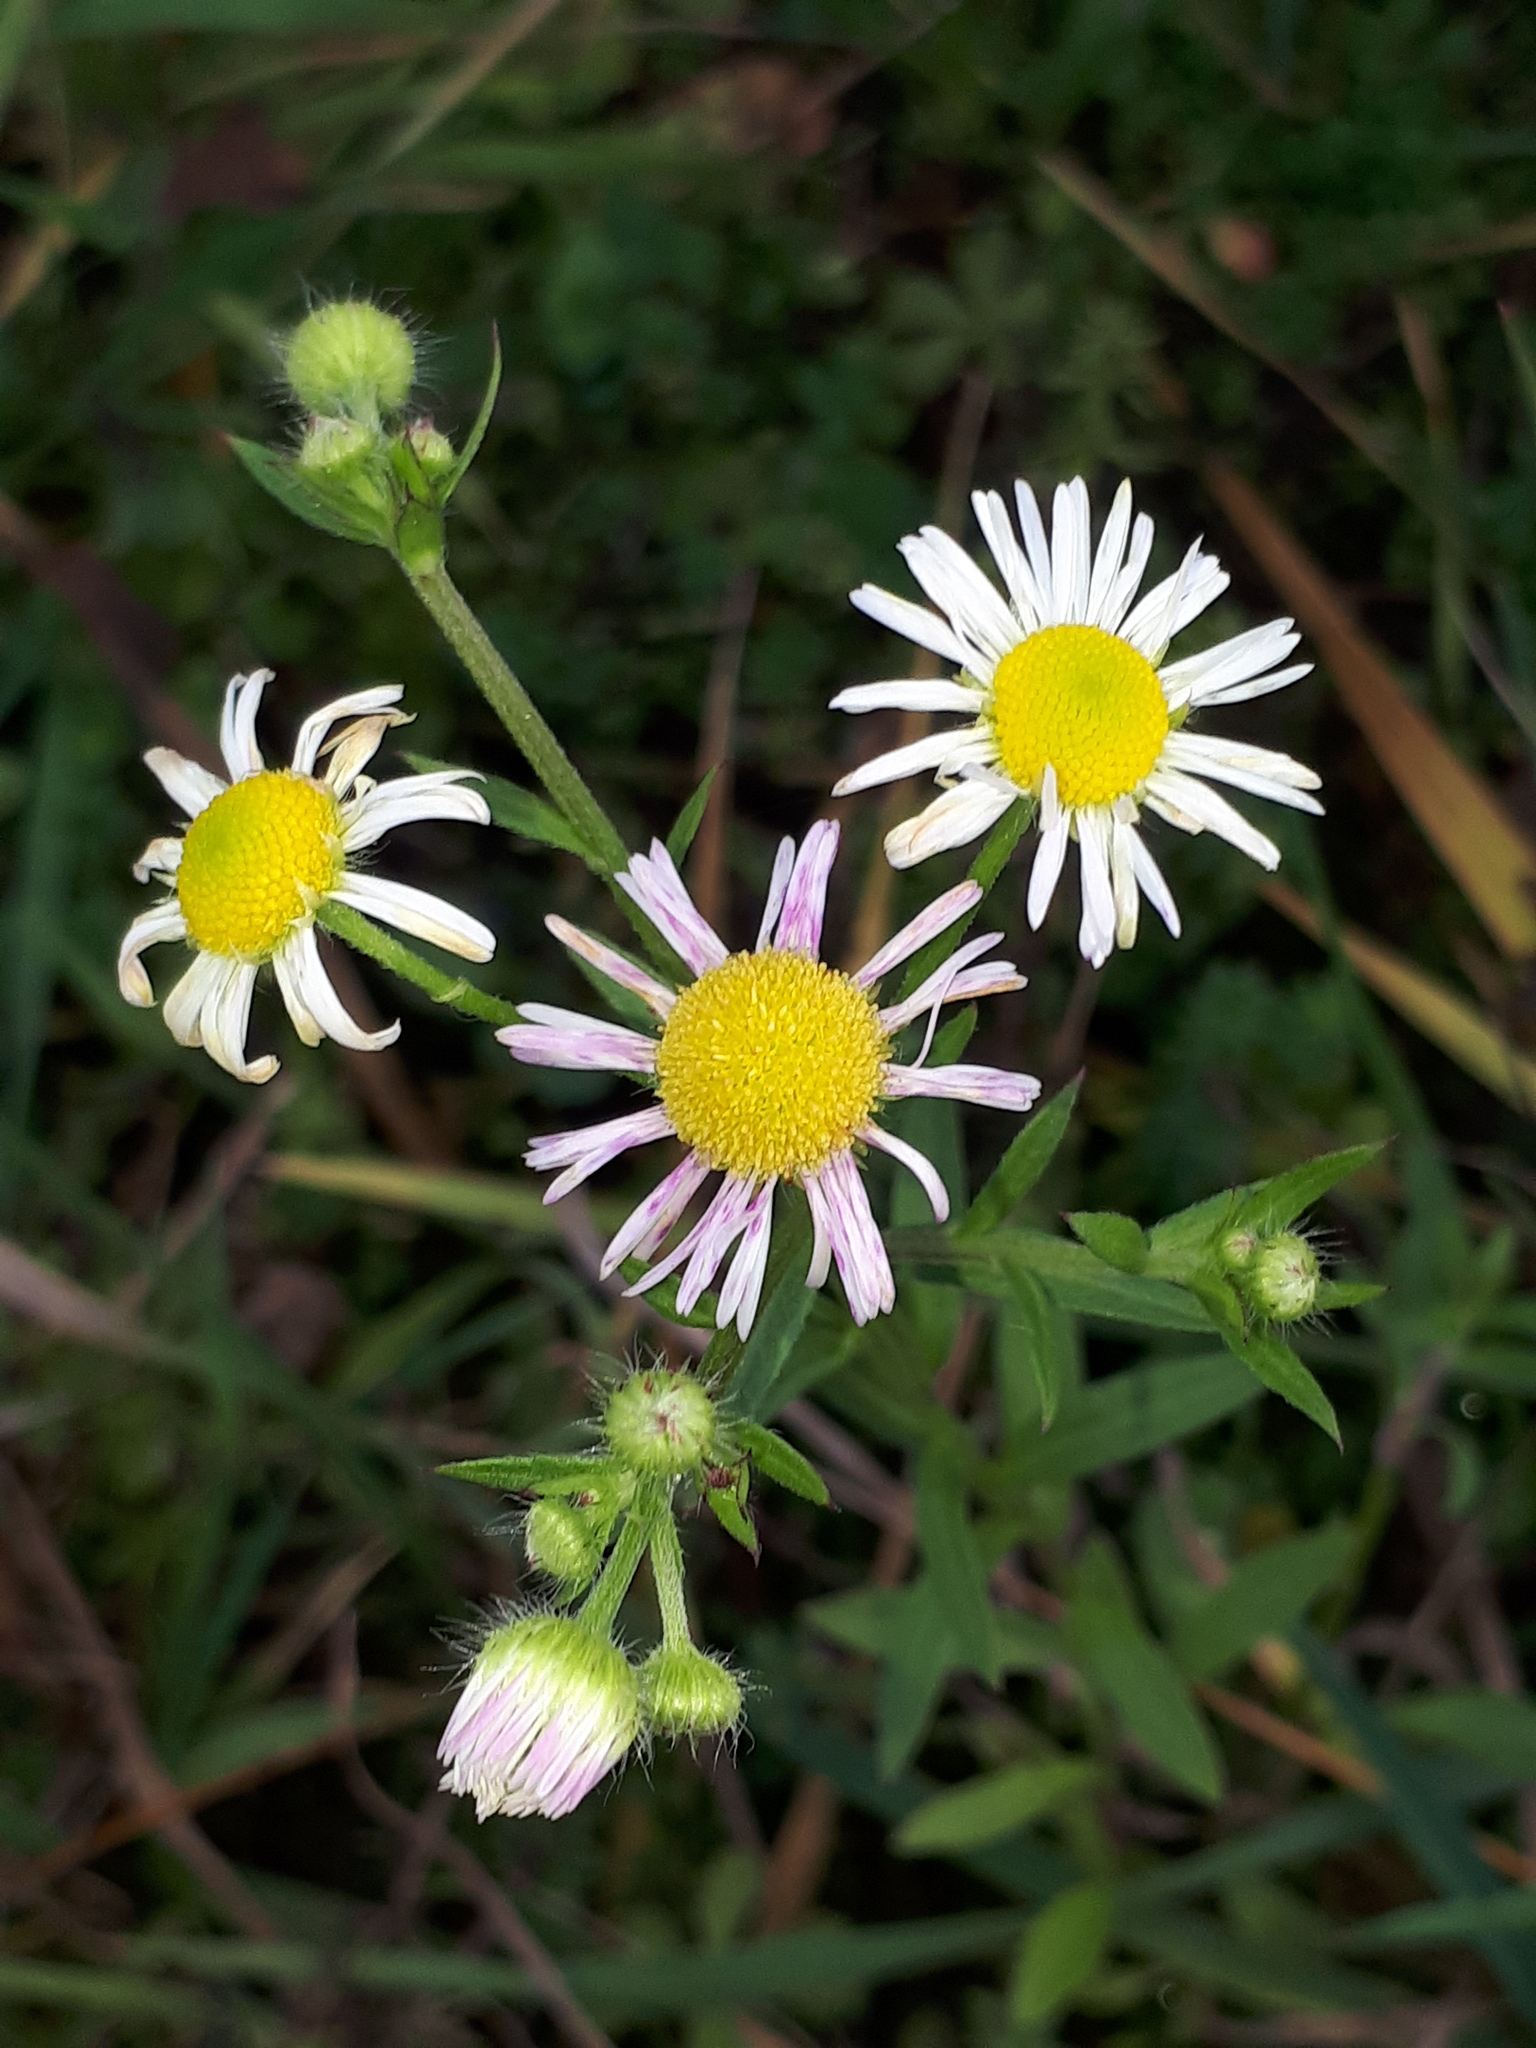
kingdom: Plantae
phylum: Tracheophyta
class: Magnoliopsida
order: Asterales
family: Asteraceae
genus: Erigeron
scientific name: Erigeron annuus
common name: Tall fleabane
